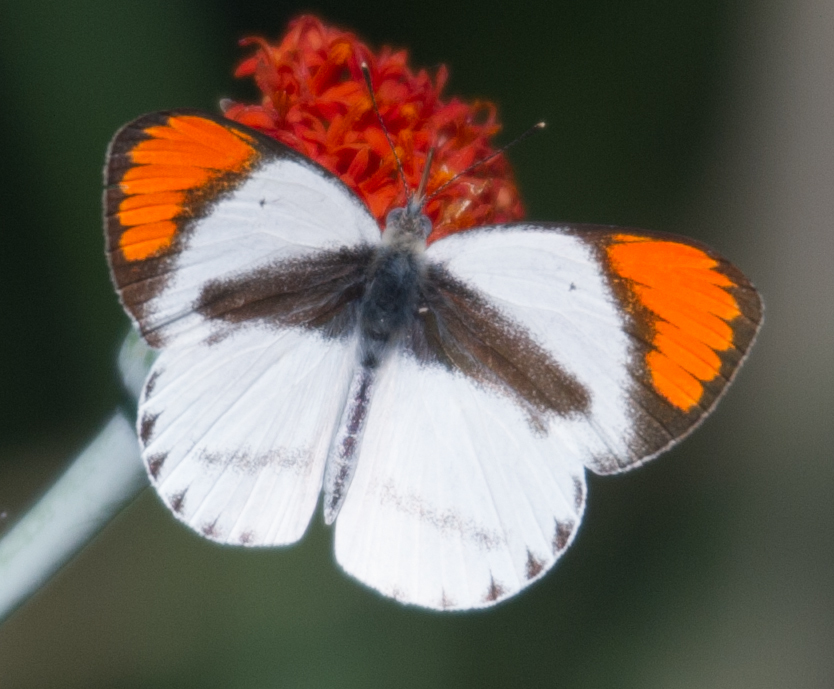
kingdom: Animalia
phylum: Arthropoda
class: Insecta
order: Lepidoptera
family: Pieridae
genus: Colotis
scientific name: Colotis euippe
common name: Round-winged orange tip
